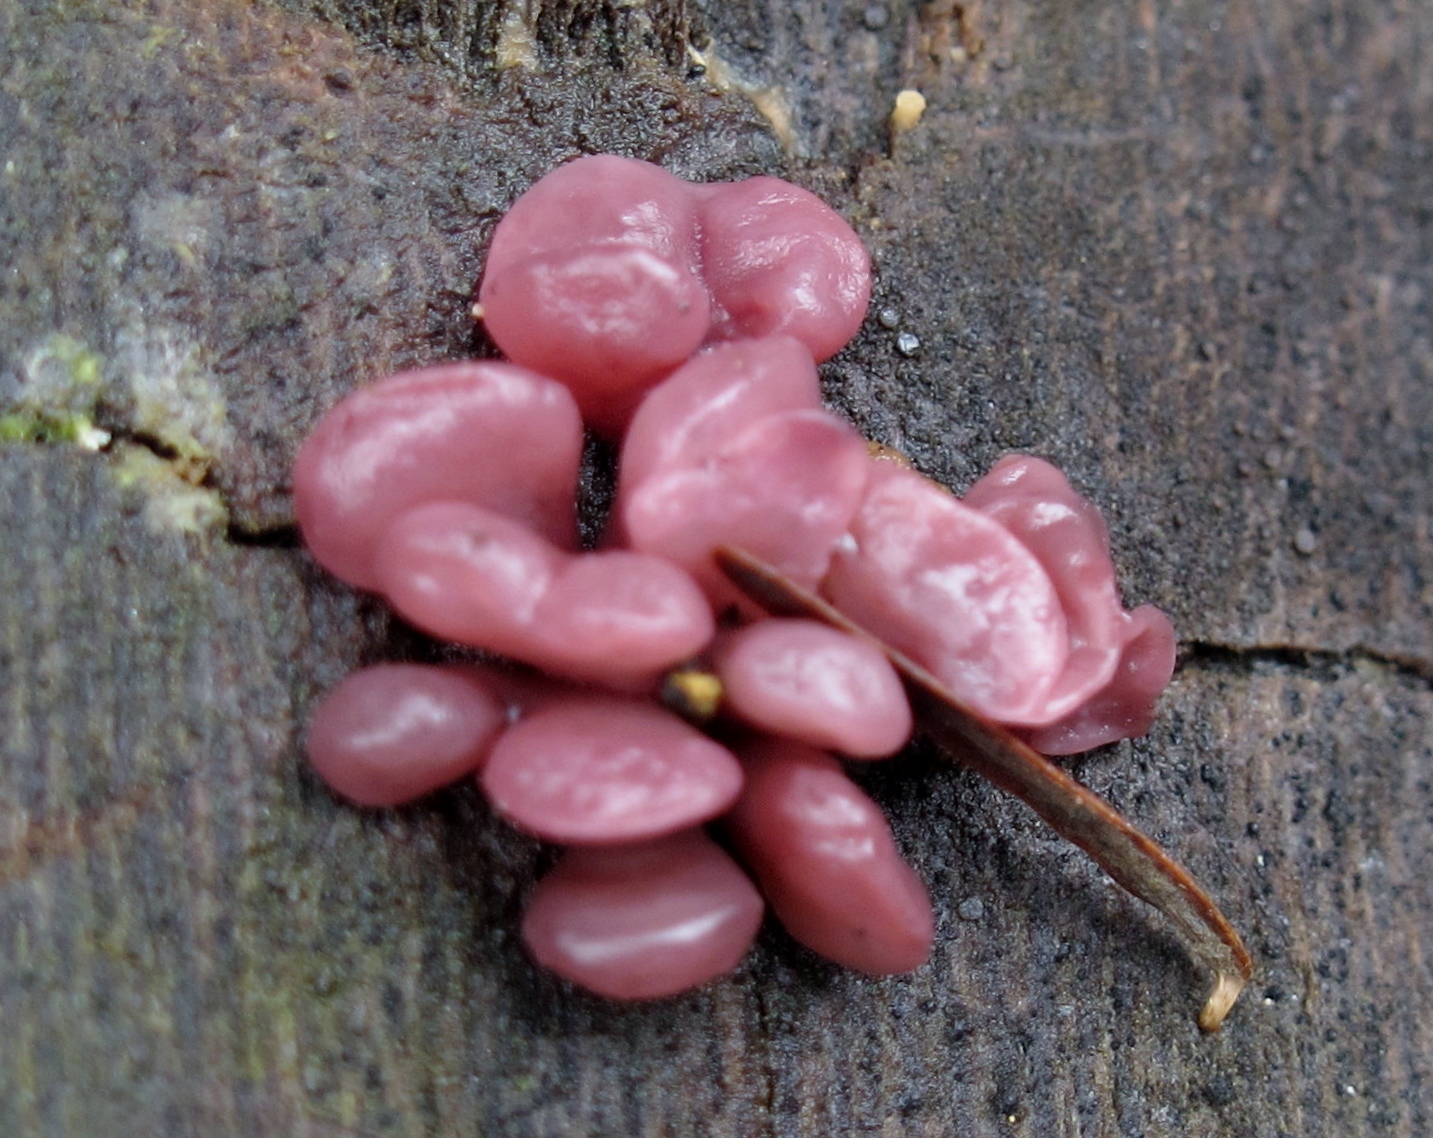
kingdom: Fungi
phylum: Ascomycota
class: Leotiomycetes
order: Helotiales
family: Gelatinodiscaceae
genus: Ascocoryne
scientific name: Ascocoryne sarcoides
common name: Purple jellydisc
